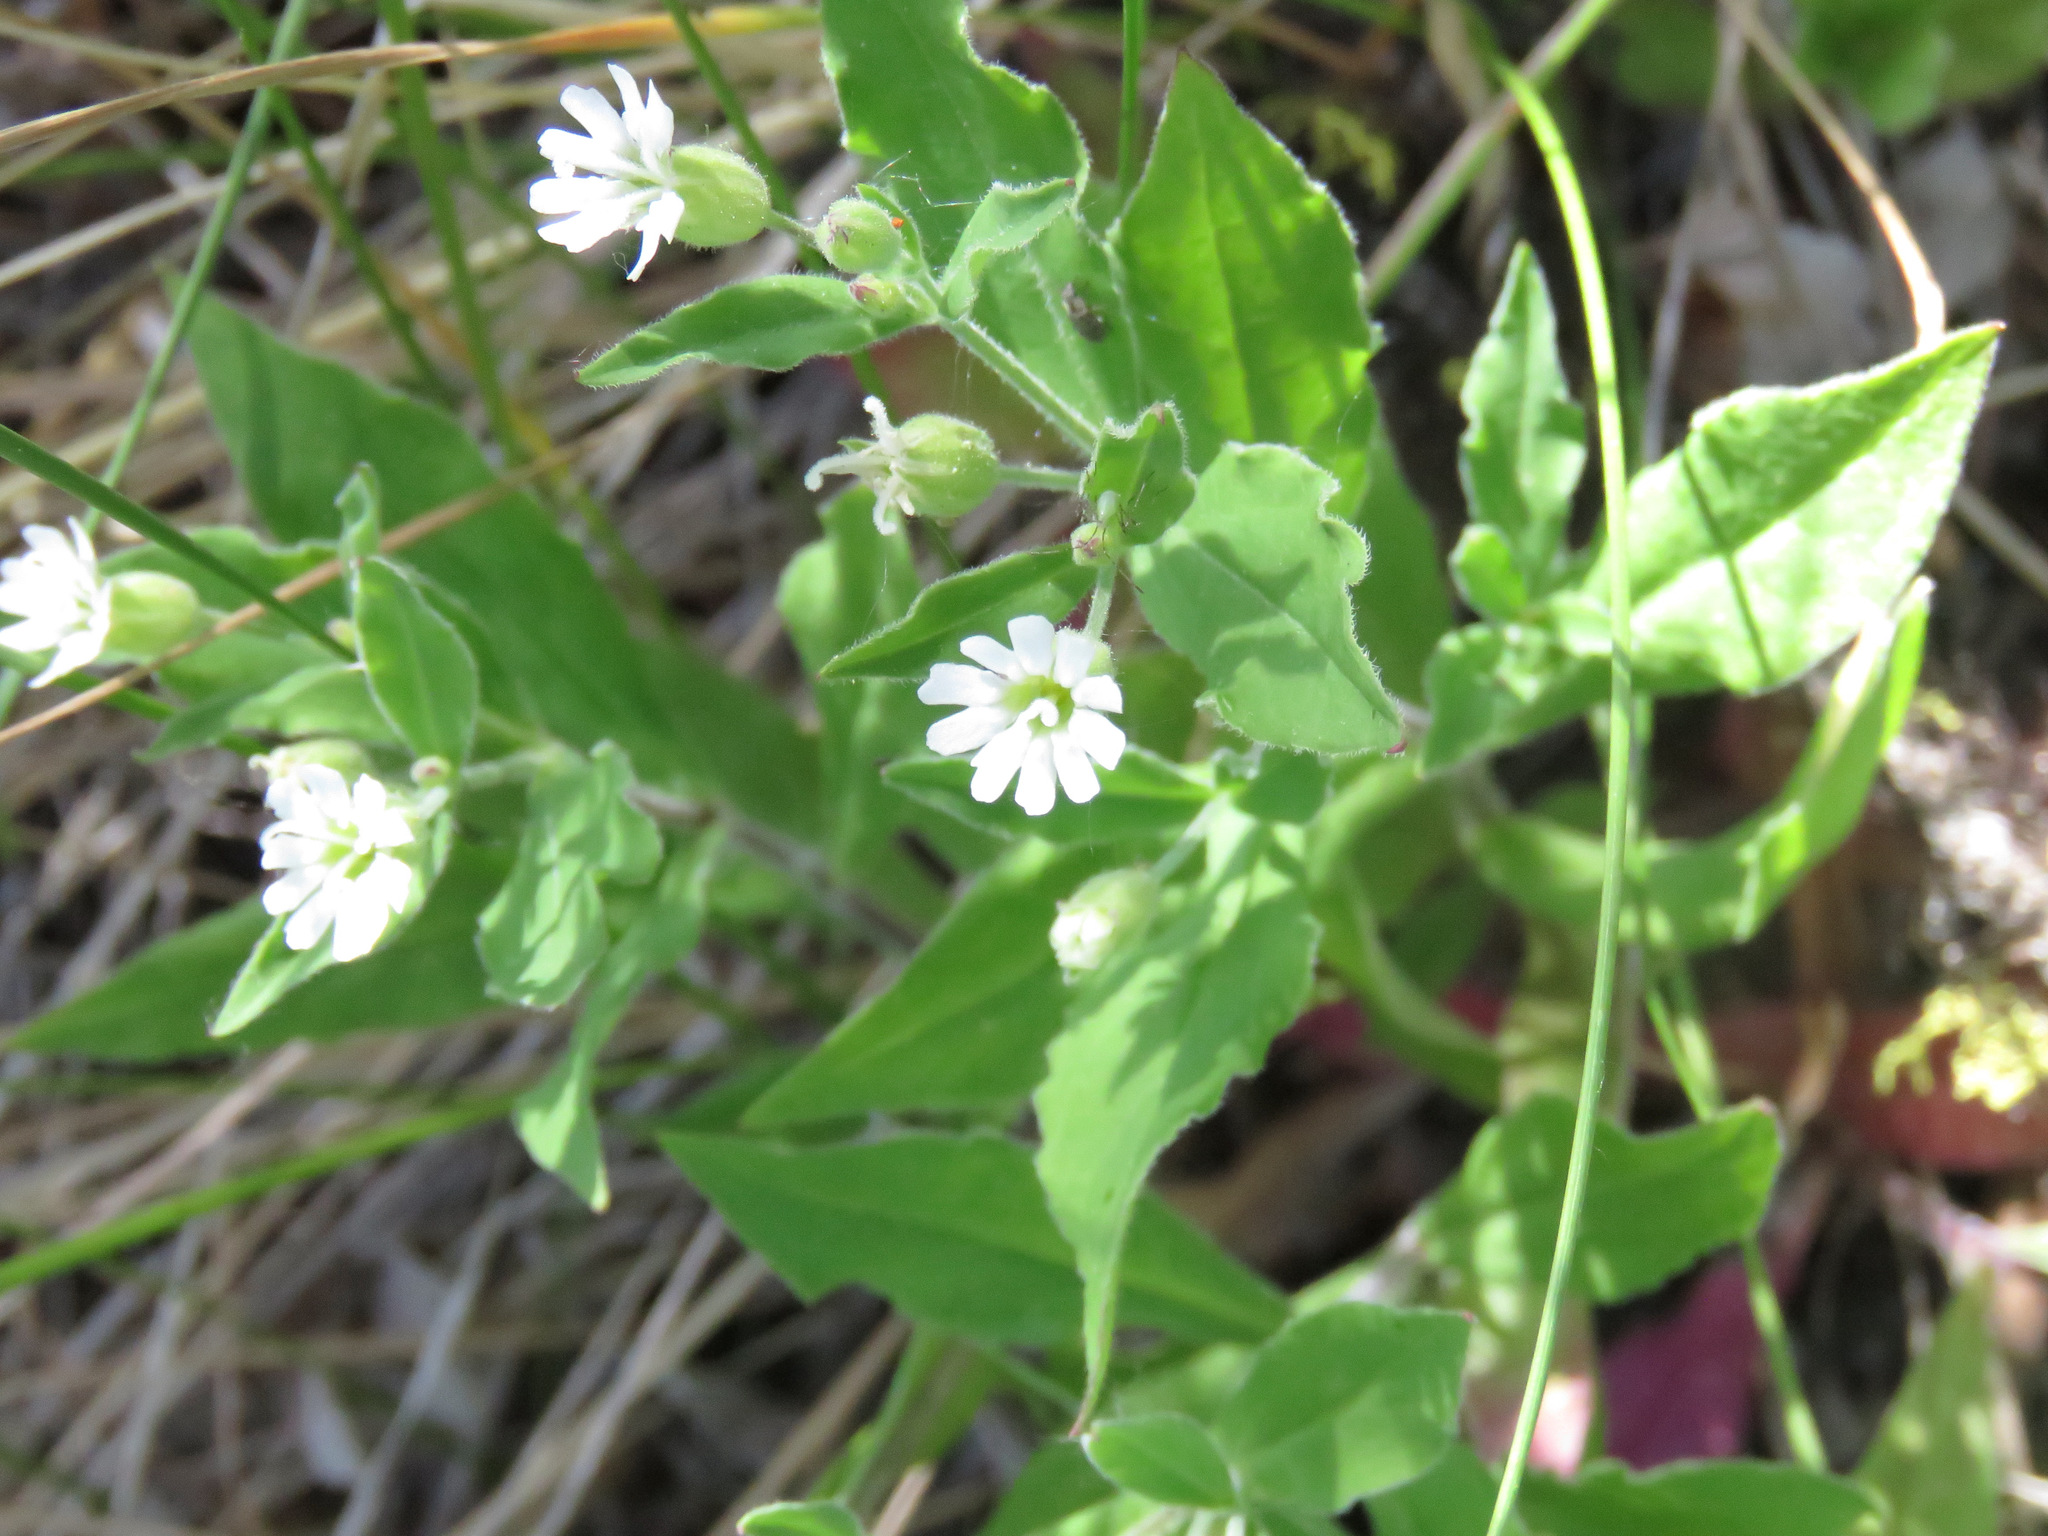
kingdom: Plantae
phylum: Tracheophyta
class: Magnoliopsida
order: Caryophyllales
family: Caryophyllaceae
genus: Silene
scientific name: Silene menziesii
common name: Menzies's catchfly
